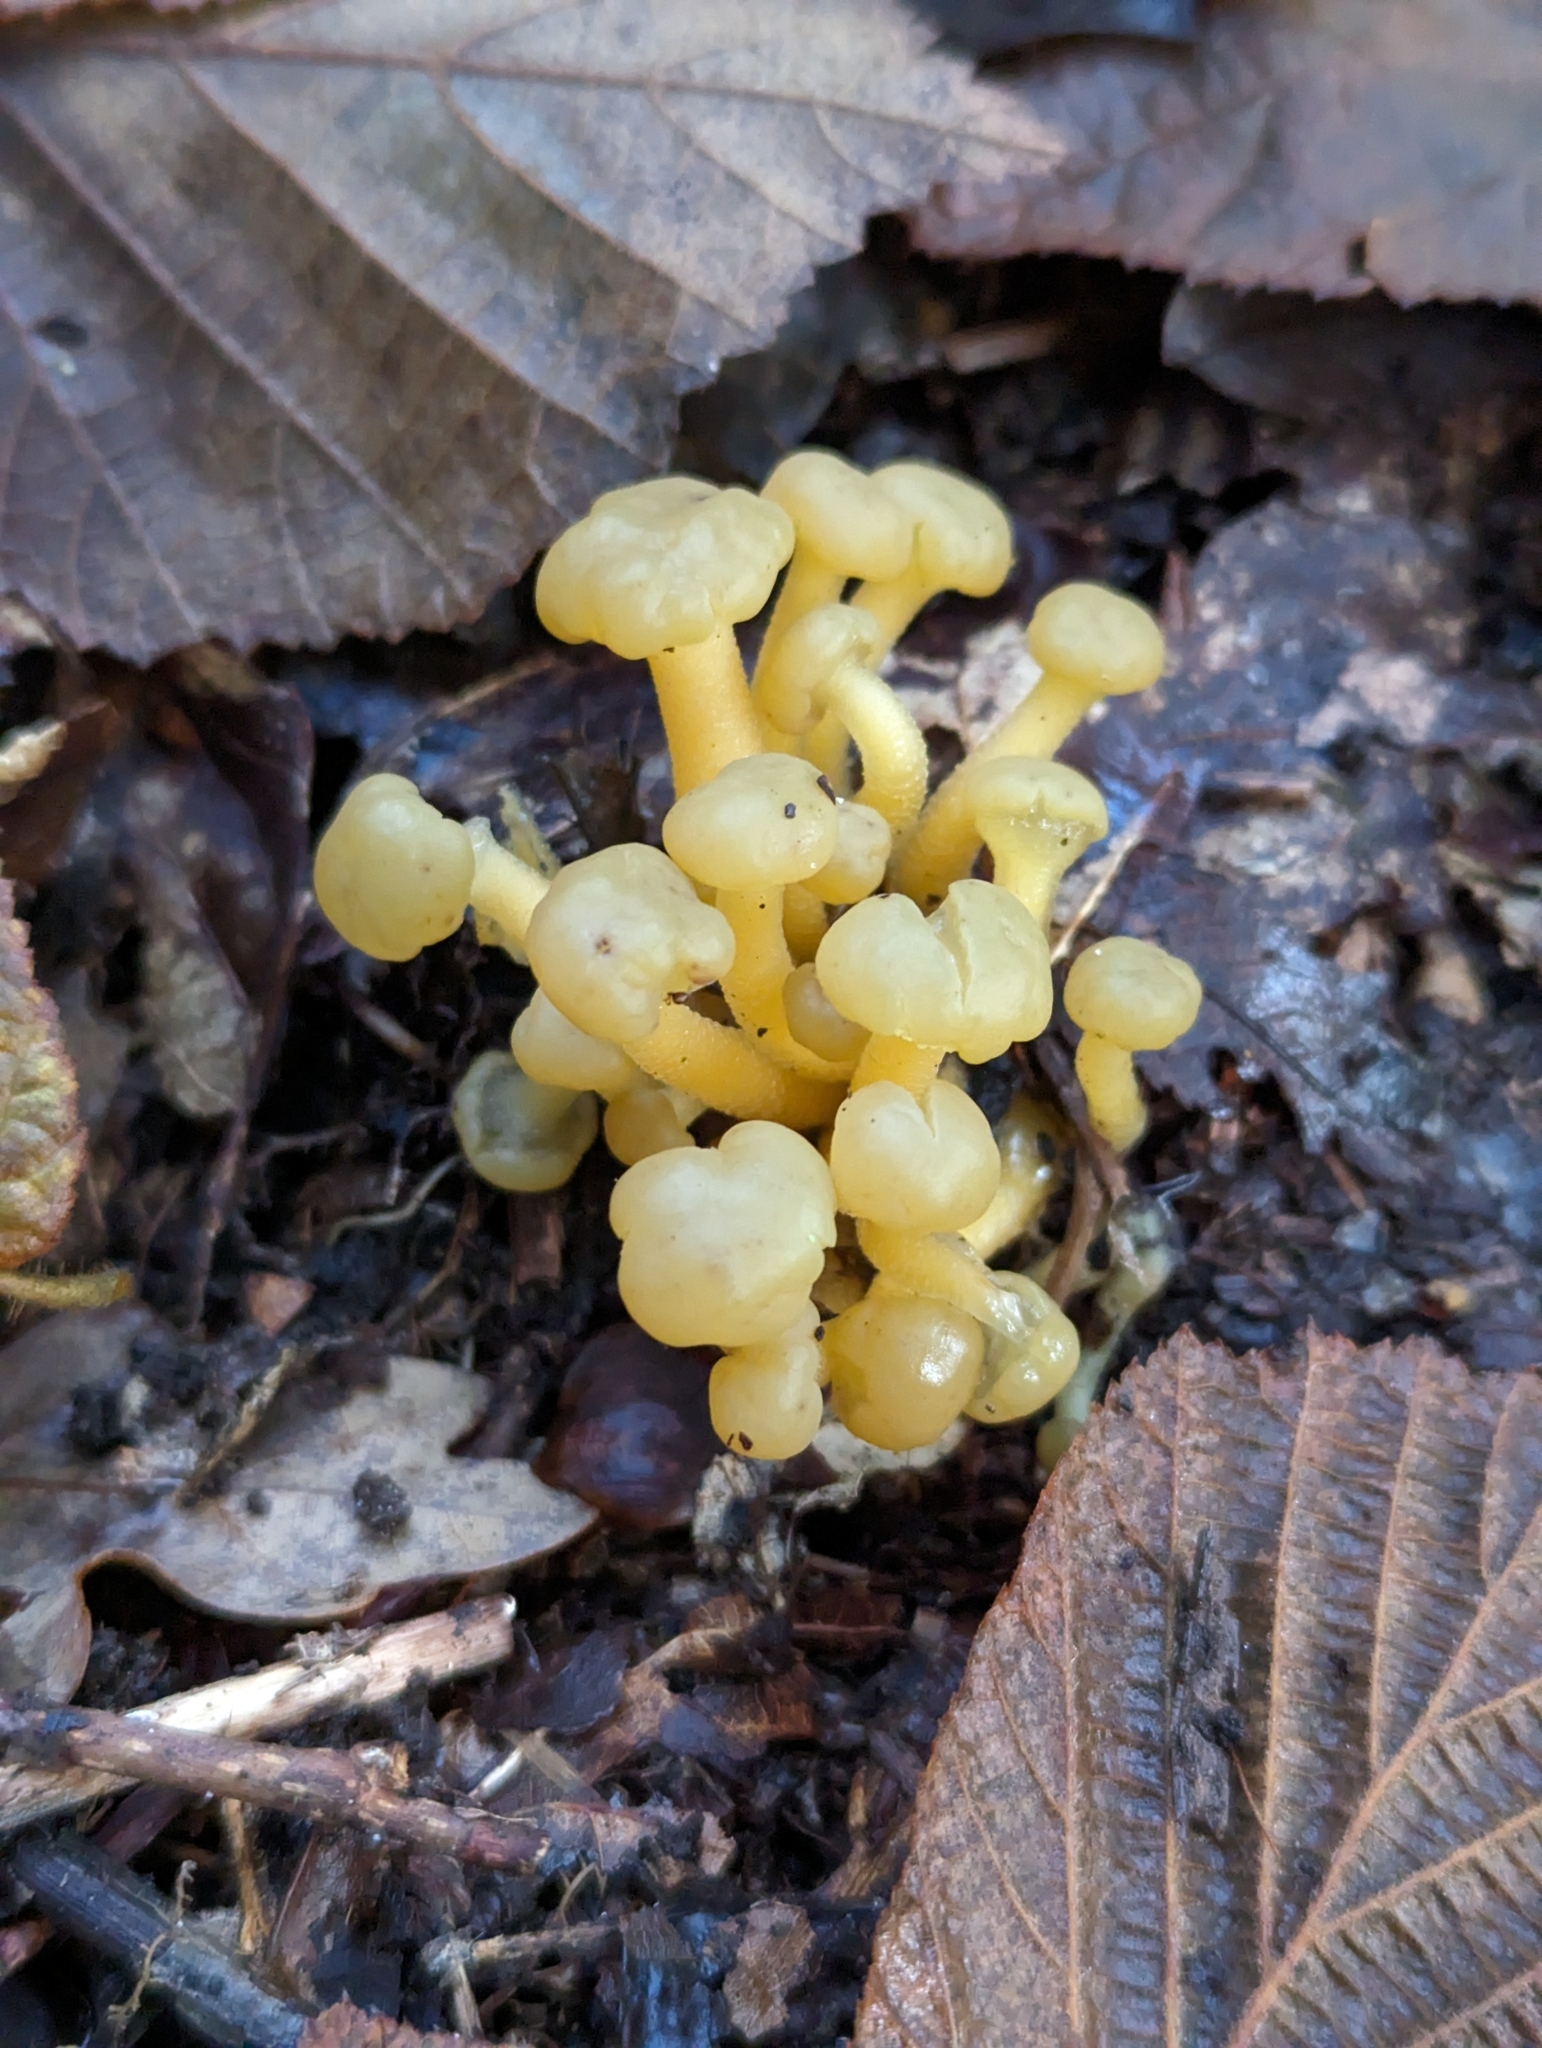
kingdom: Fungi
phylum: Ascomycota
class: Leotiomycetes
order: Leotiales
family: Leotiaceae
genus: Leotia
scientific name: Leotia lubrica
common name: Jellybaby
